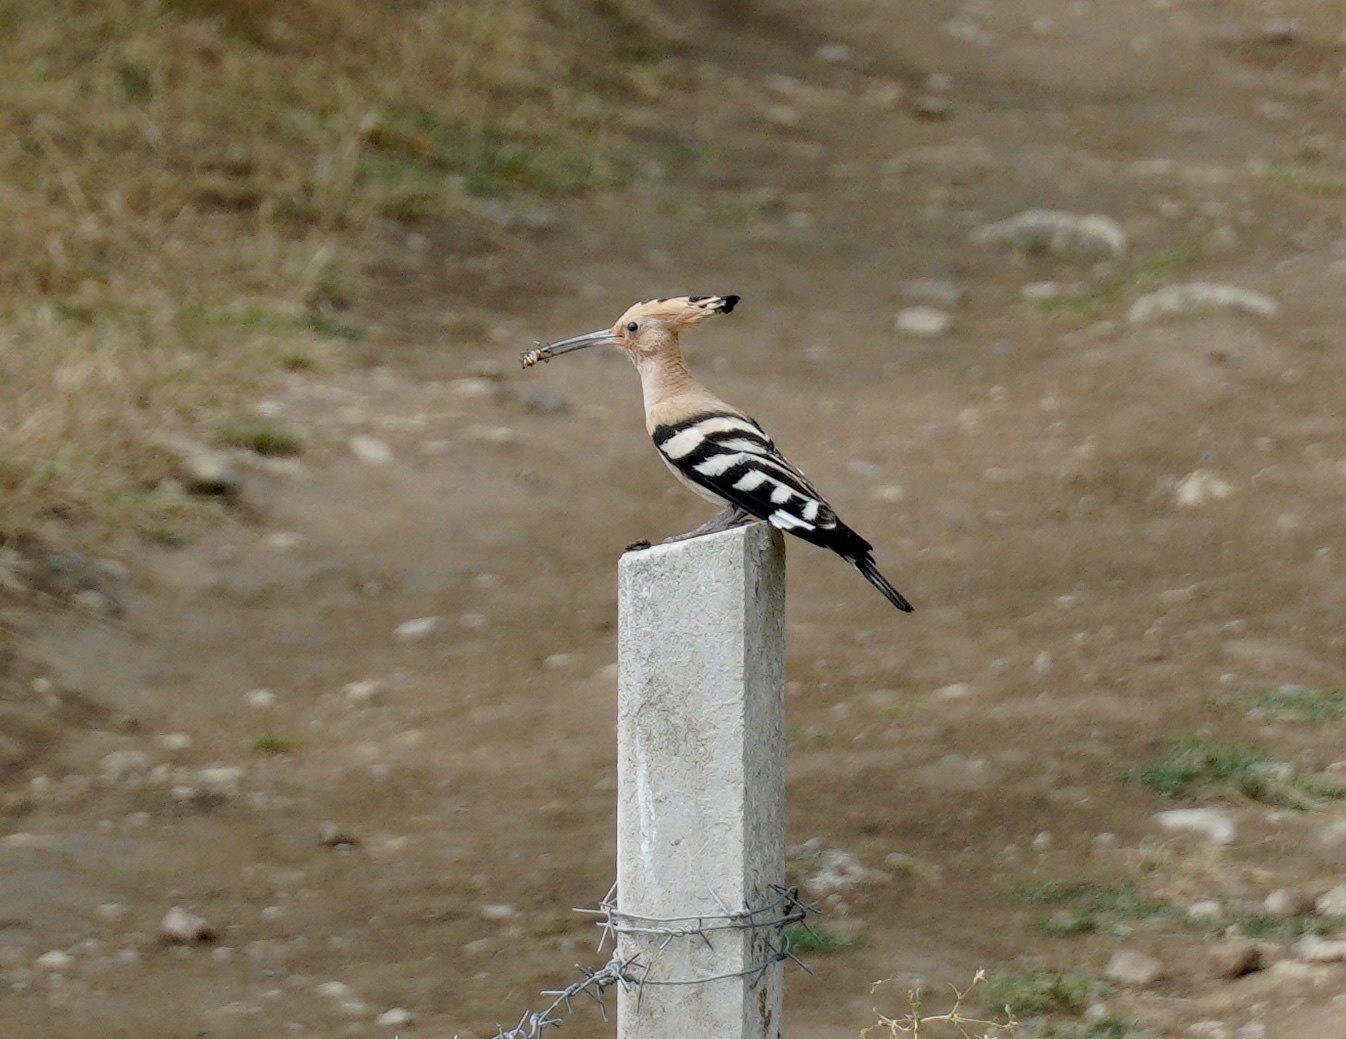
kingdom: Animalia
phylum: Chordata
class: Aves
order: Bucerotiformes
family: Upupidae
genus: Upupa
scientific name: Upupa epops
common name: Eurasian hoopoe
